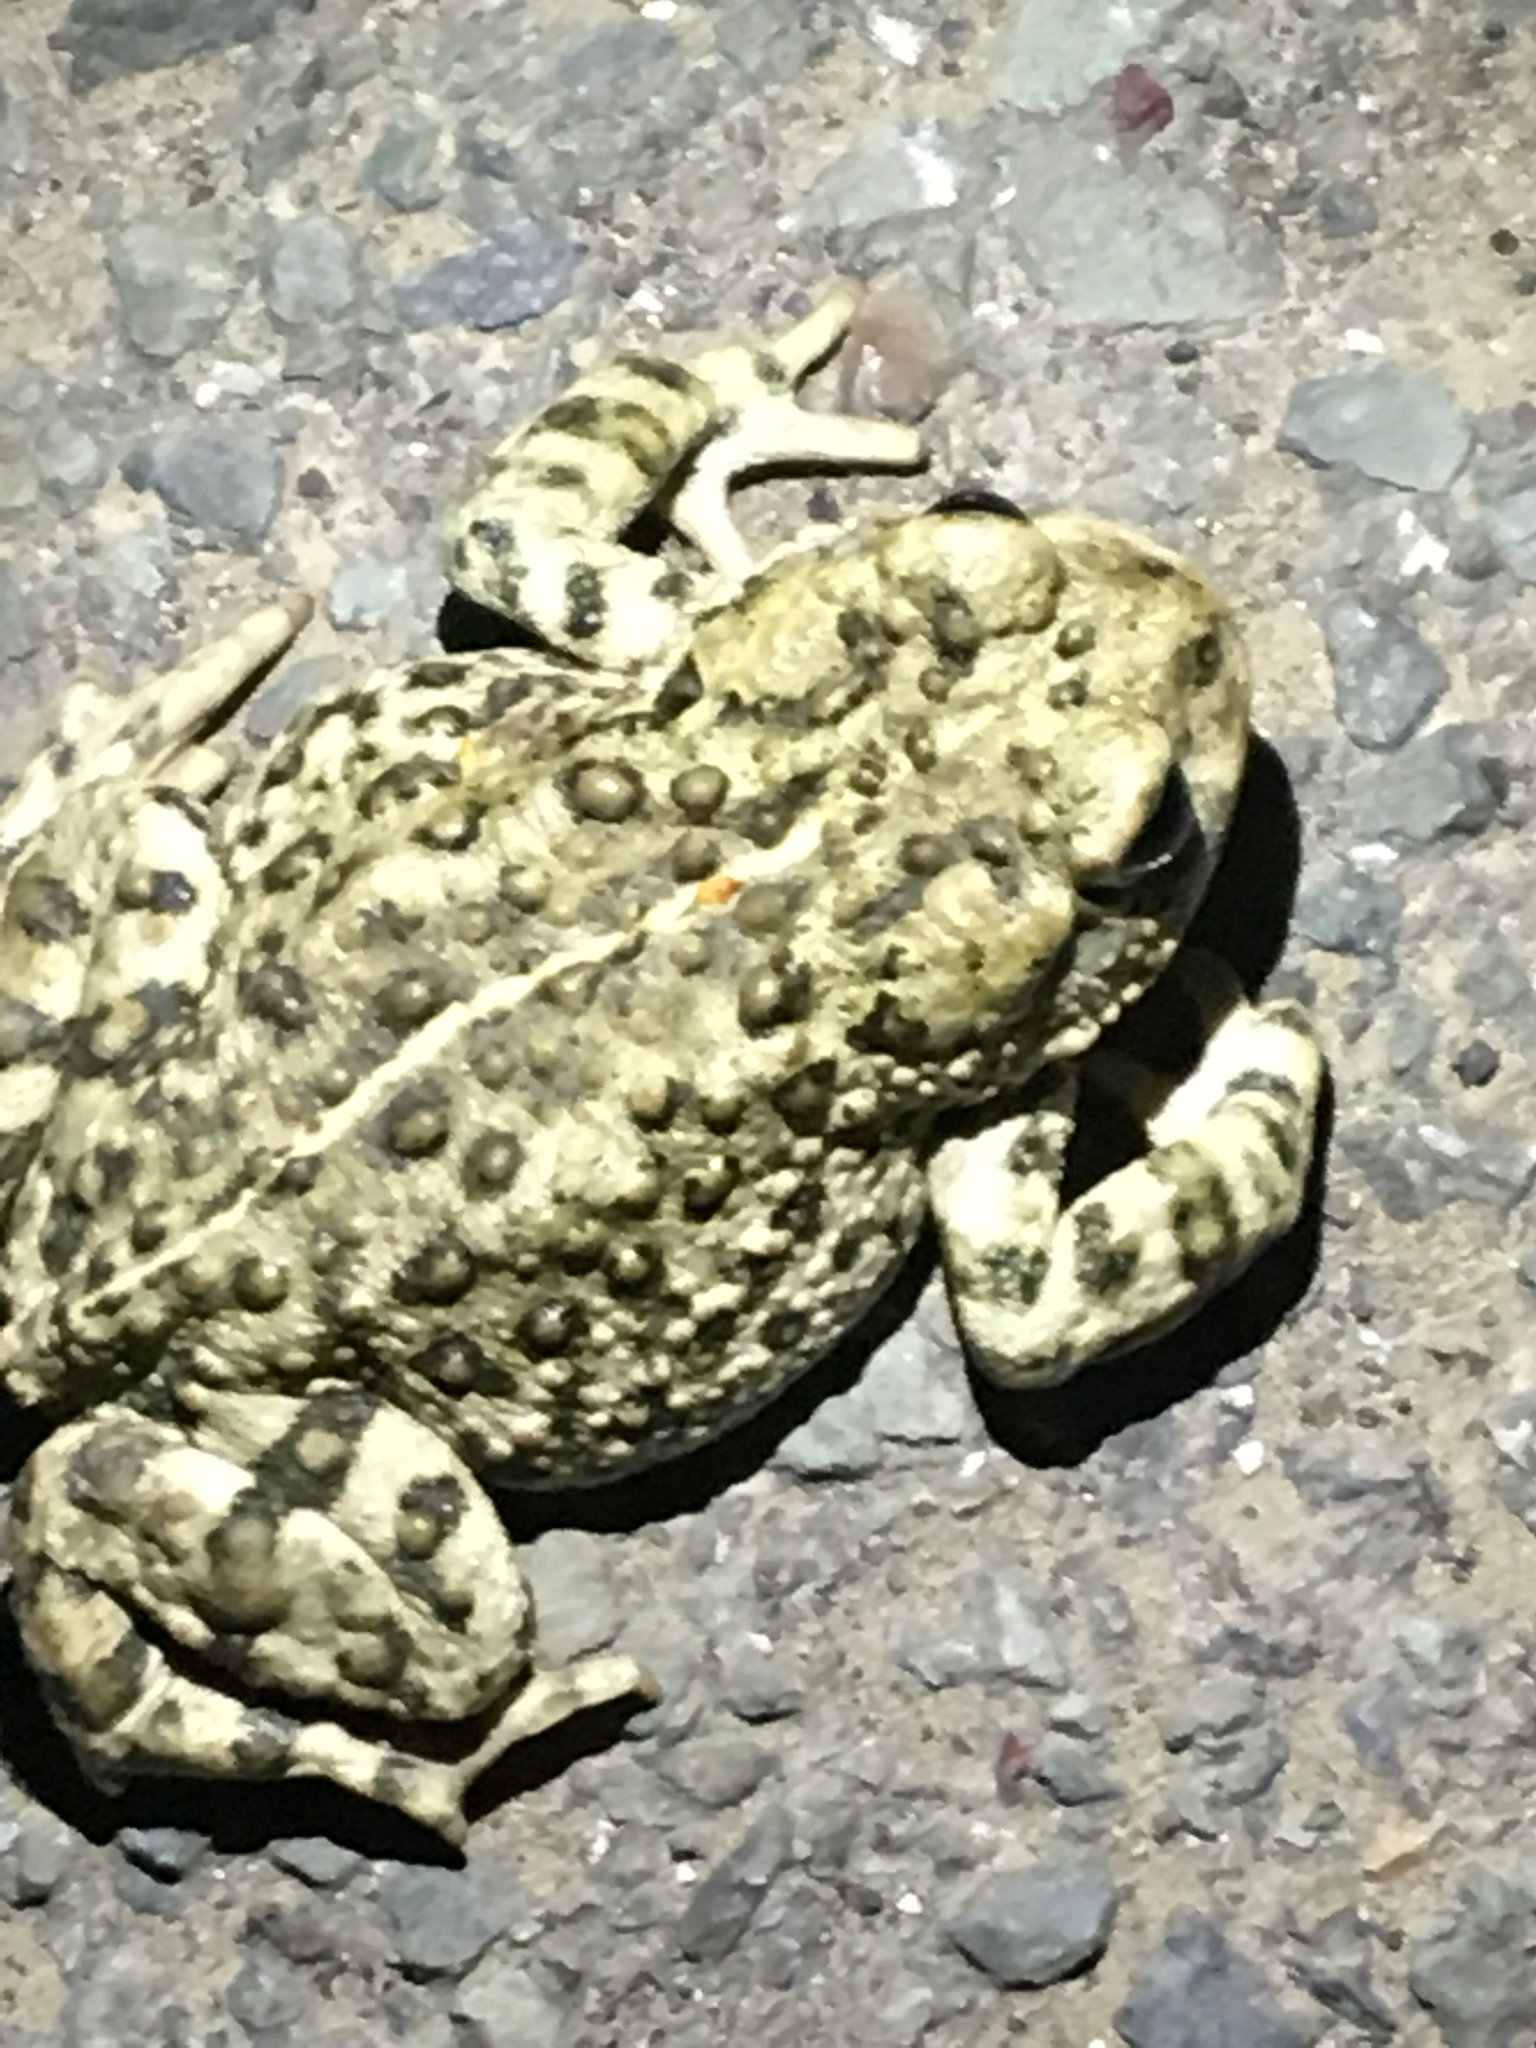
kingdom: Animalia
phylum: Chordata
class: Amphibia
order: Anura
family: Bufonidae
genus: Anaxyrus
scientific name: Anaxyrus boreas
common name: Western toad
